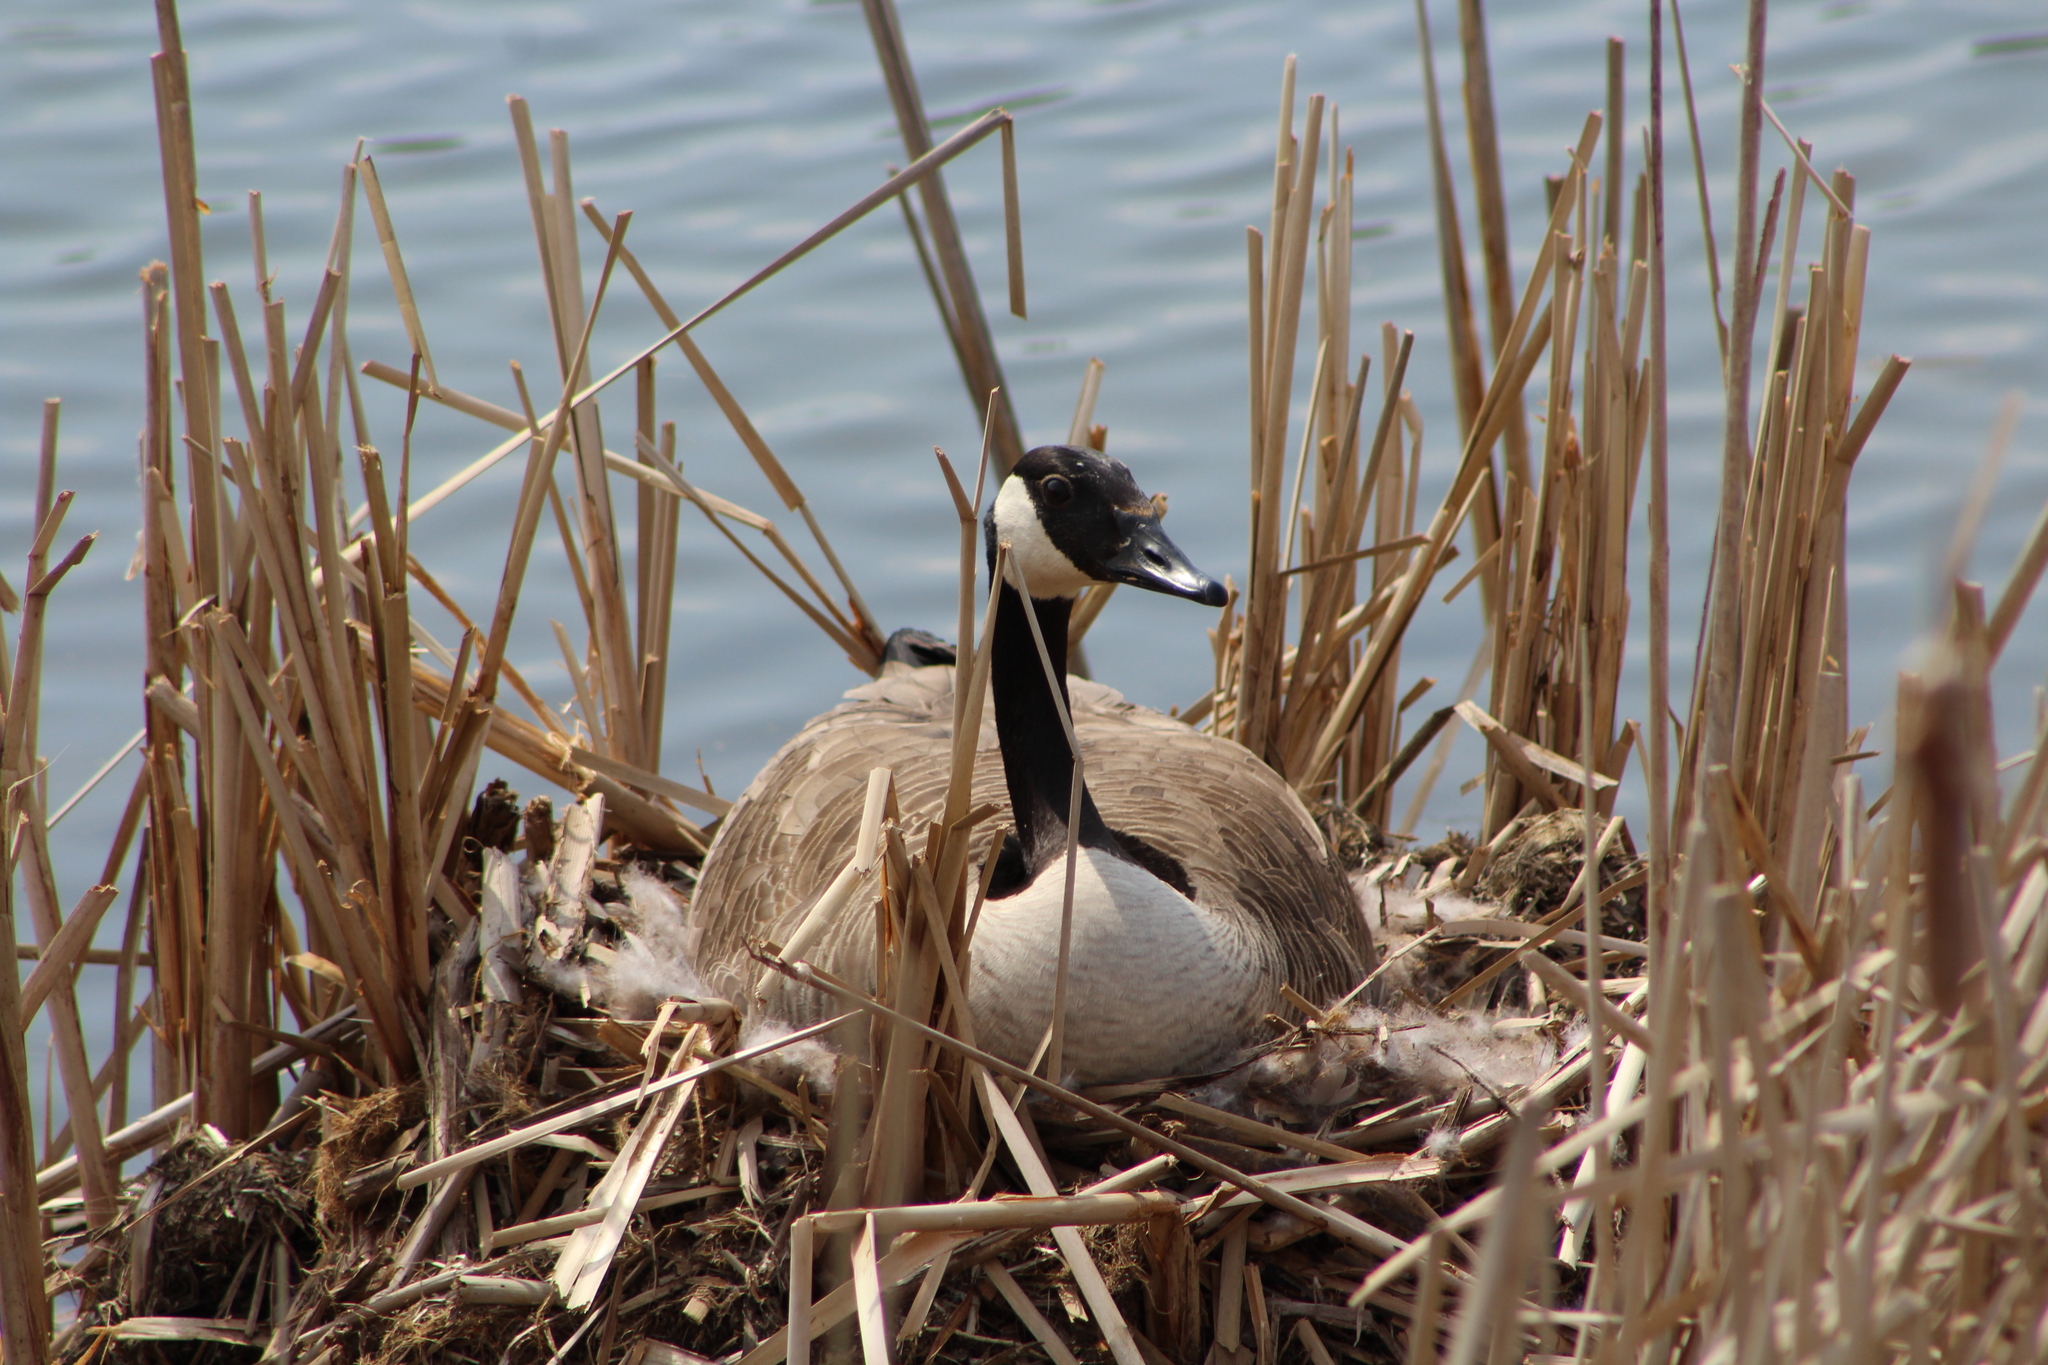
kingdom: Animalia
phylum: Chordata
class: Aves
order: Anseriformes
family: Anatidae
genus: Branta
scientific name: Branta canadensis
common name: Canada goose
